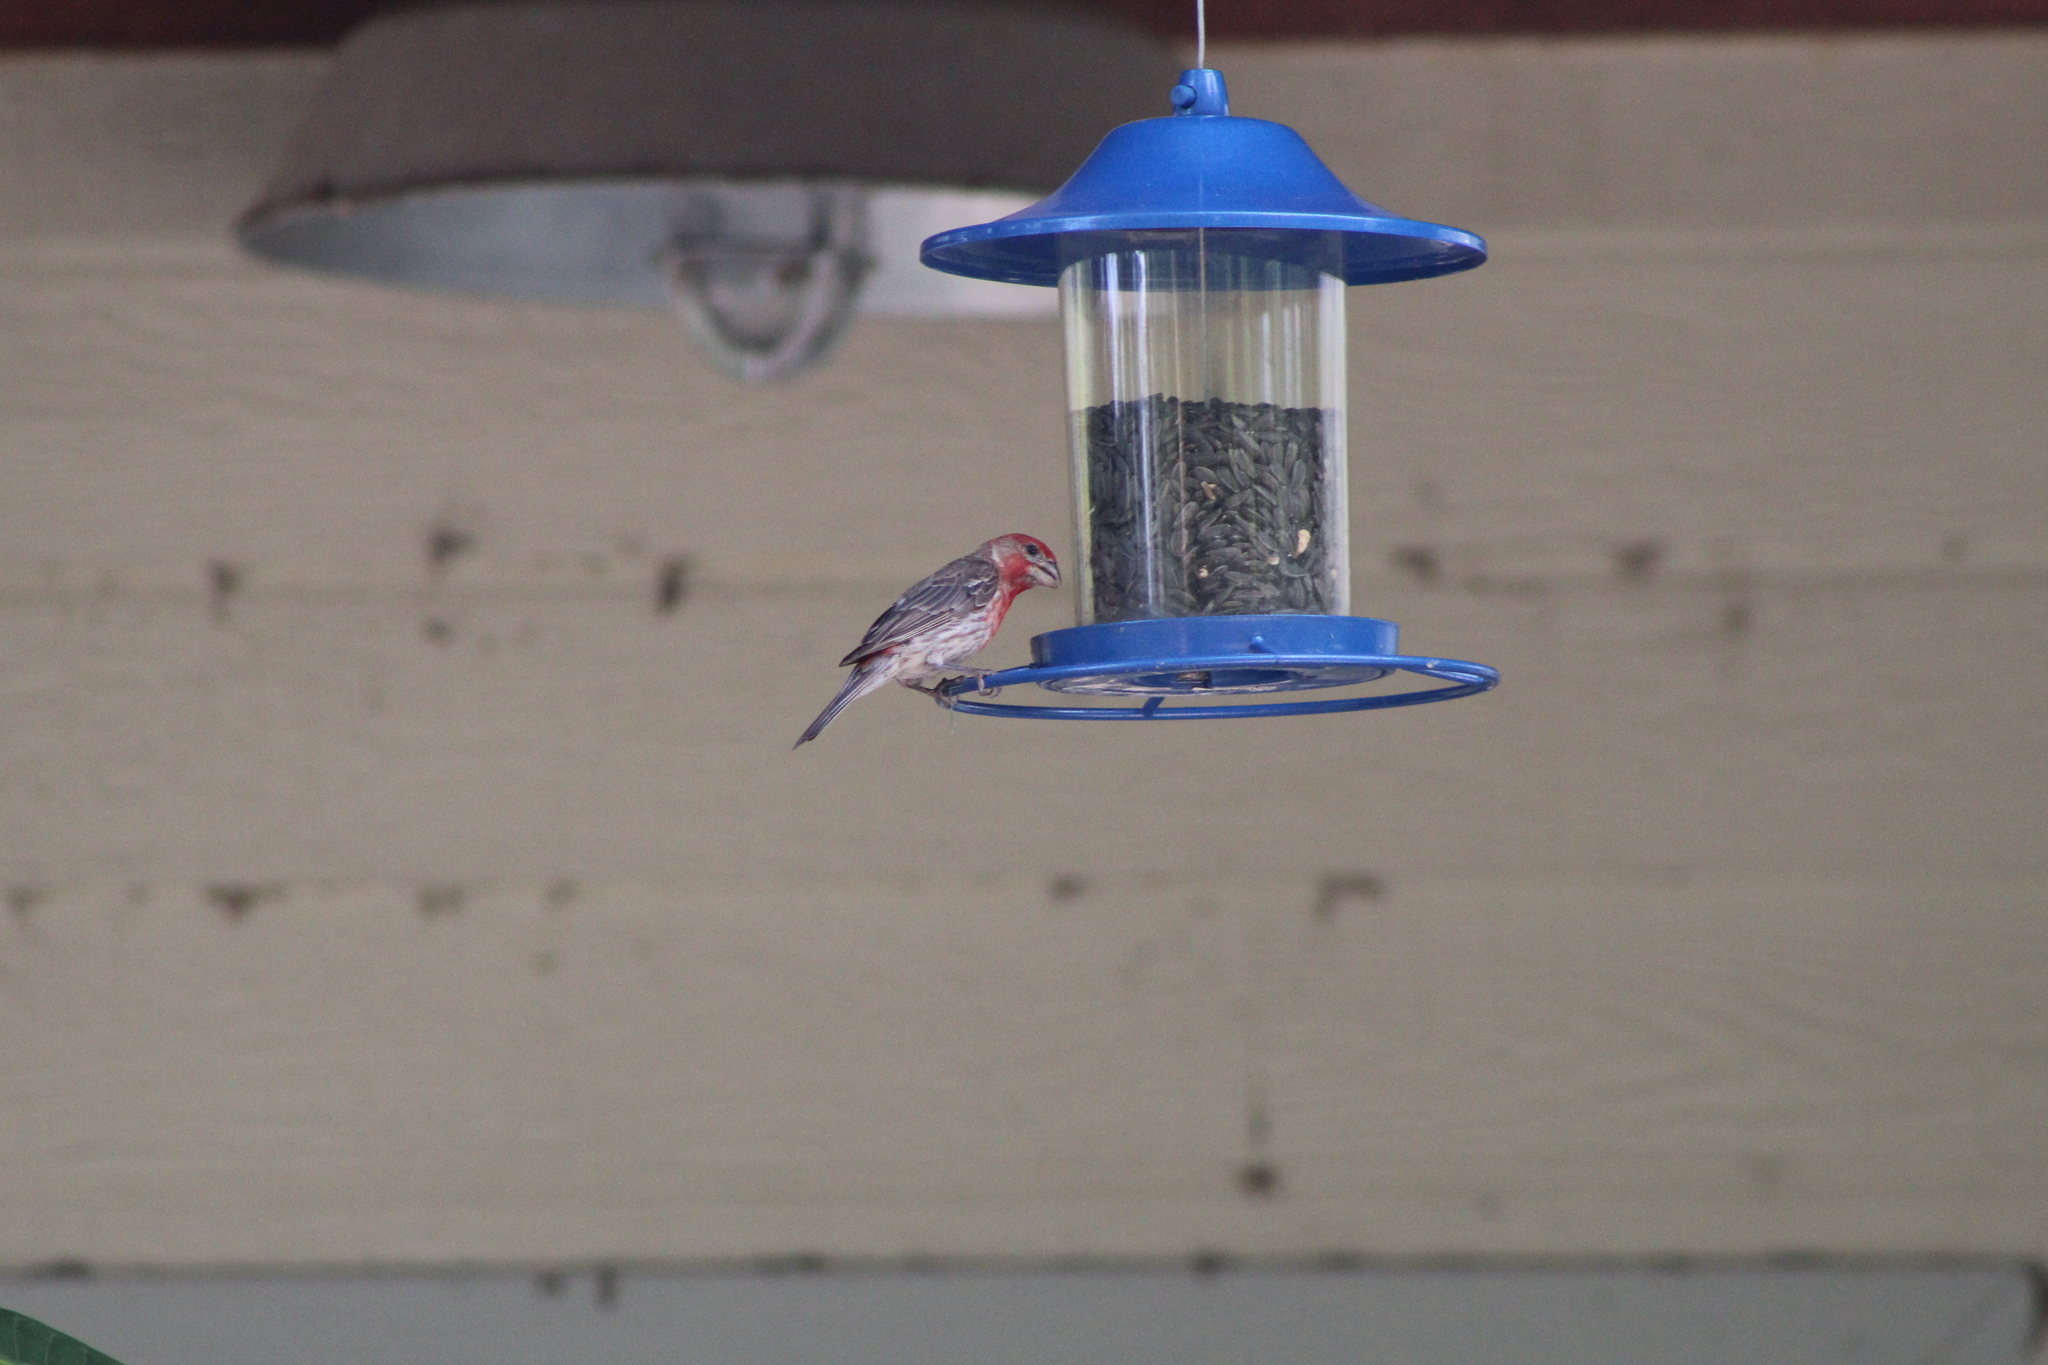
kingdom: Animalia
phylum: Chordata
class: Aves
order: Passeriformes
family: Fringillidae
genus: Haemorhous
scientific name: Haemorhous mexicanus
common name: House finch
